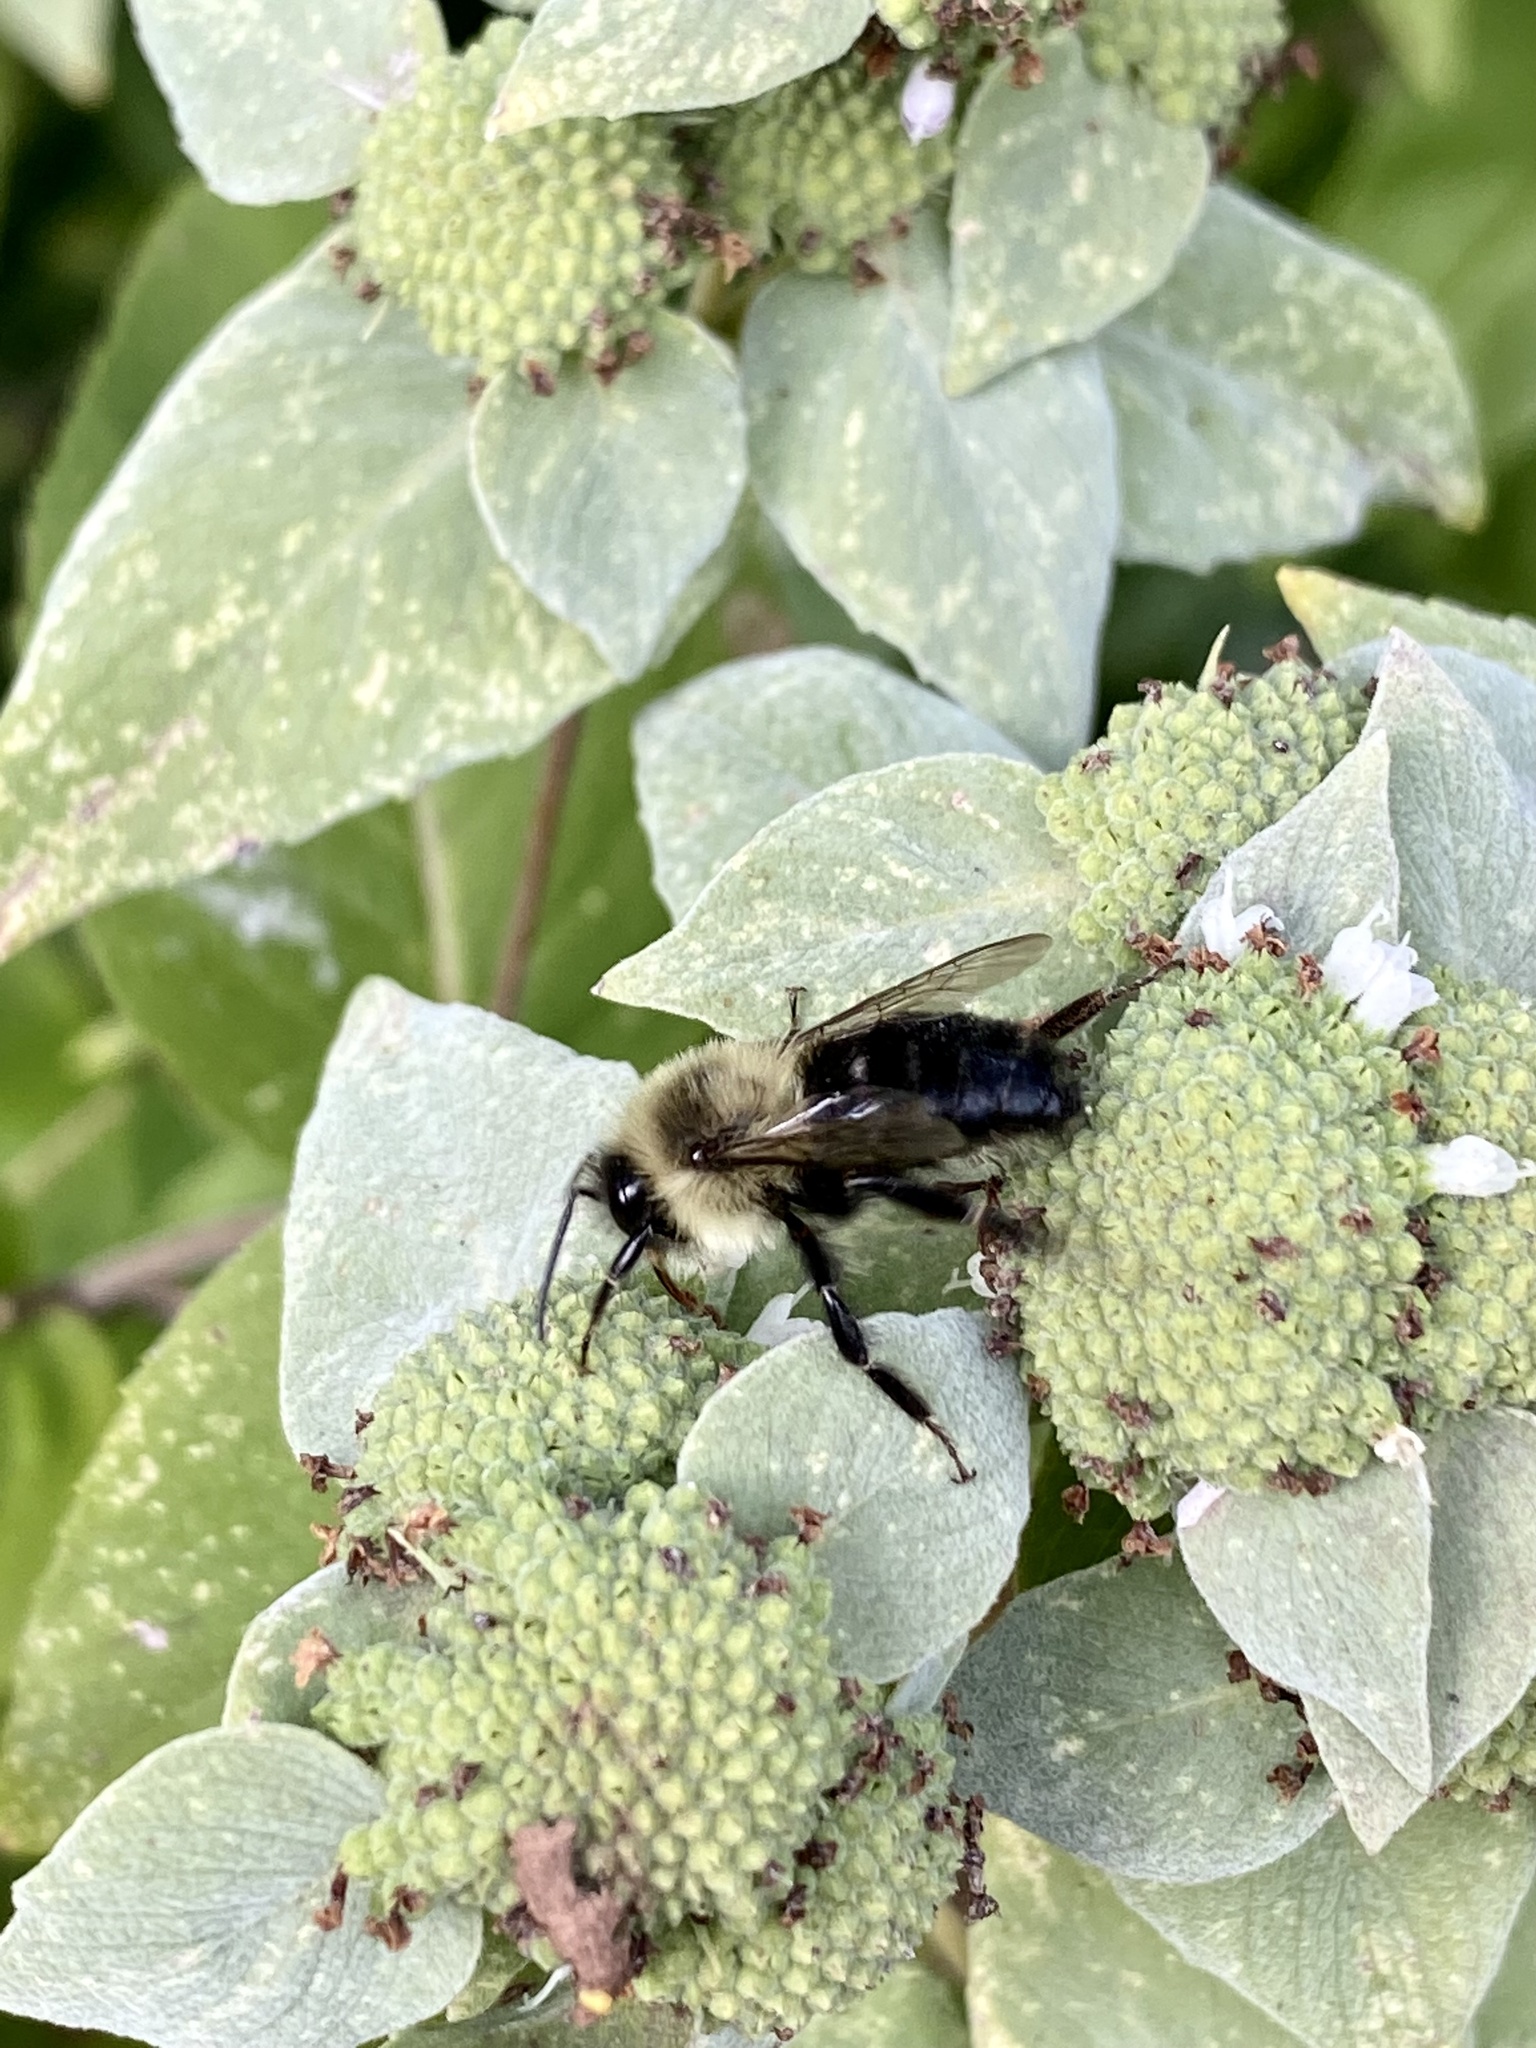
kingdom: Animalia
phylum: Arthropoda
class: Insecta
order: Hymenoptera
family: Apidae
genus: Bombus
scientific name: Bombus impatiens
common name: Common eastern bumble bee
